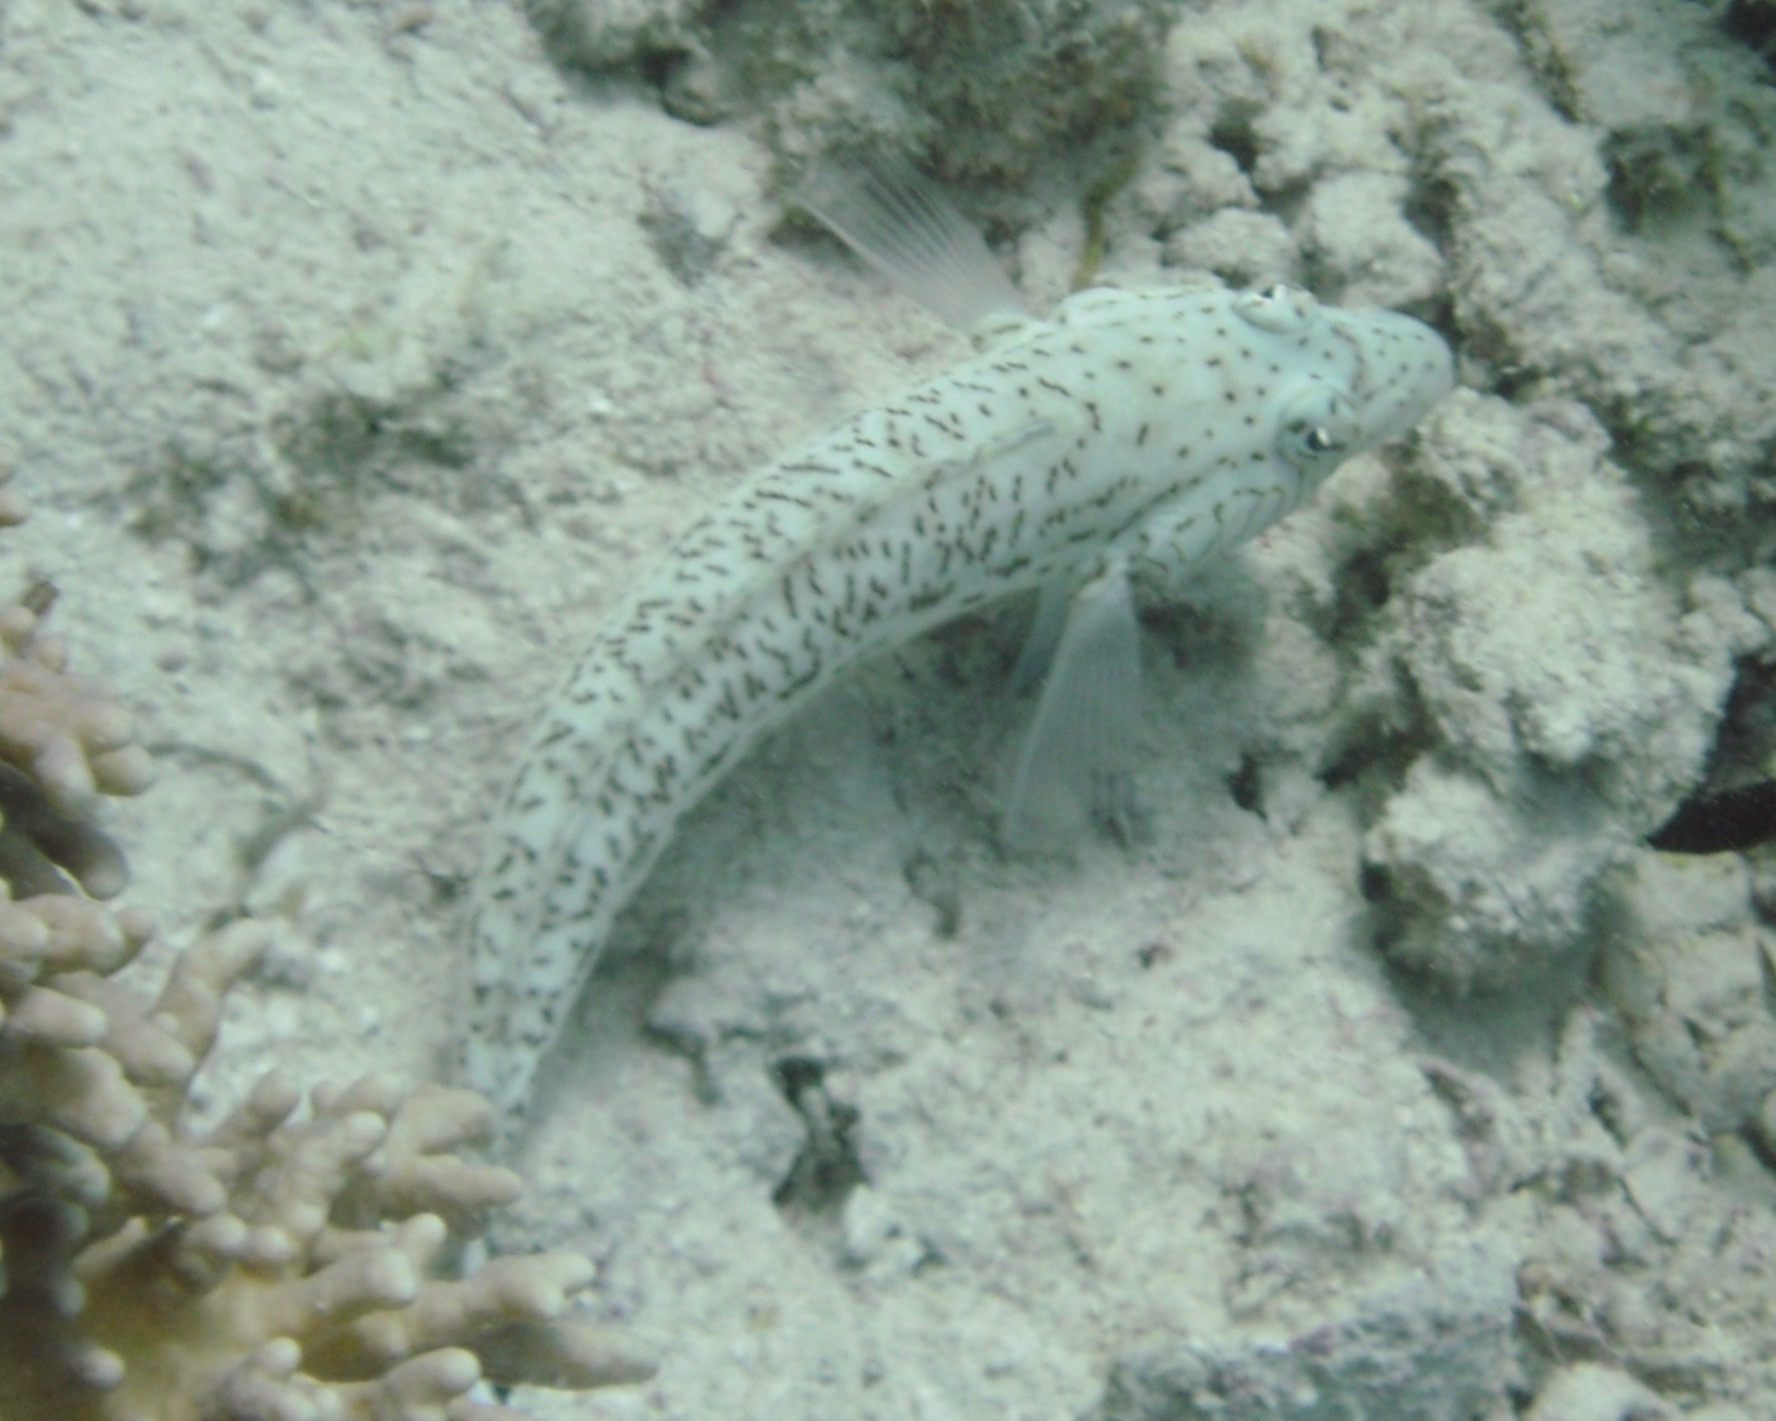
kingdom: Animalia
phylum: Chordata
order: Perciformes
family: Pinguipedidae
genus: Parapercis
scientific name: Parapercis hexophtalma
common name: Speckled sandperch
